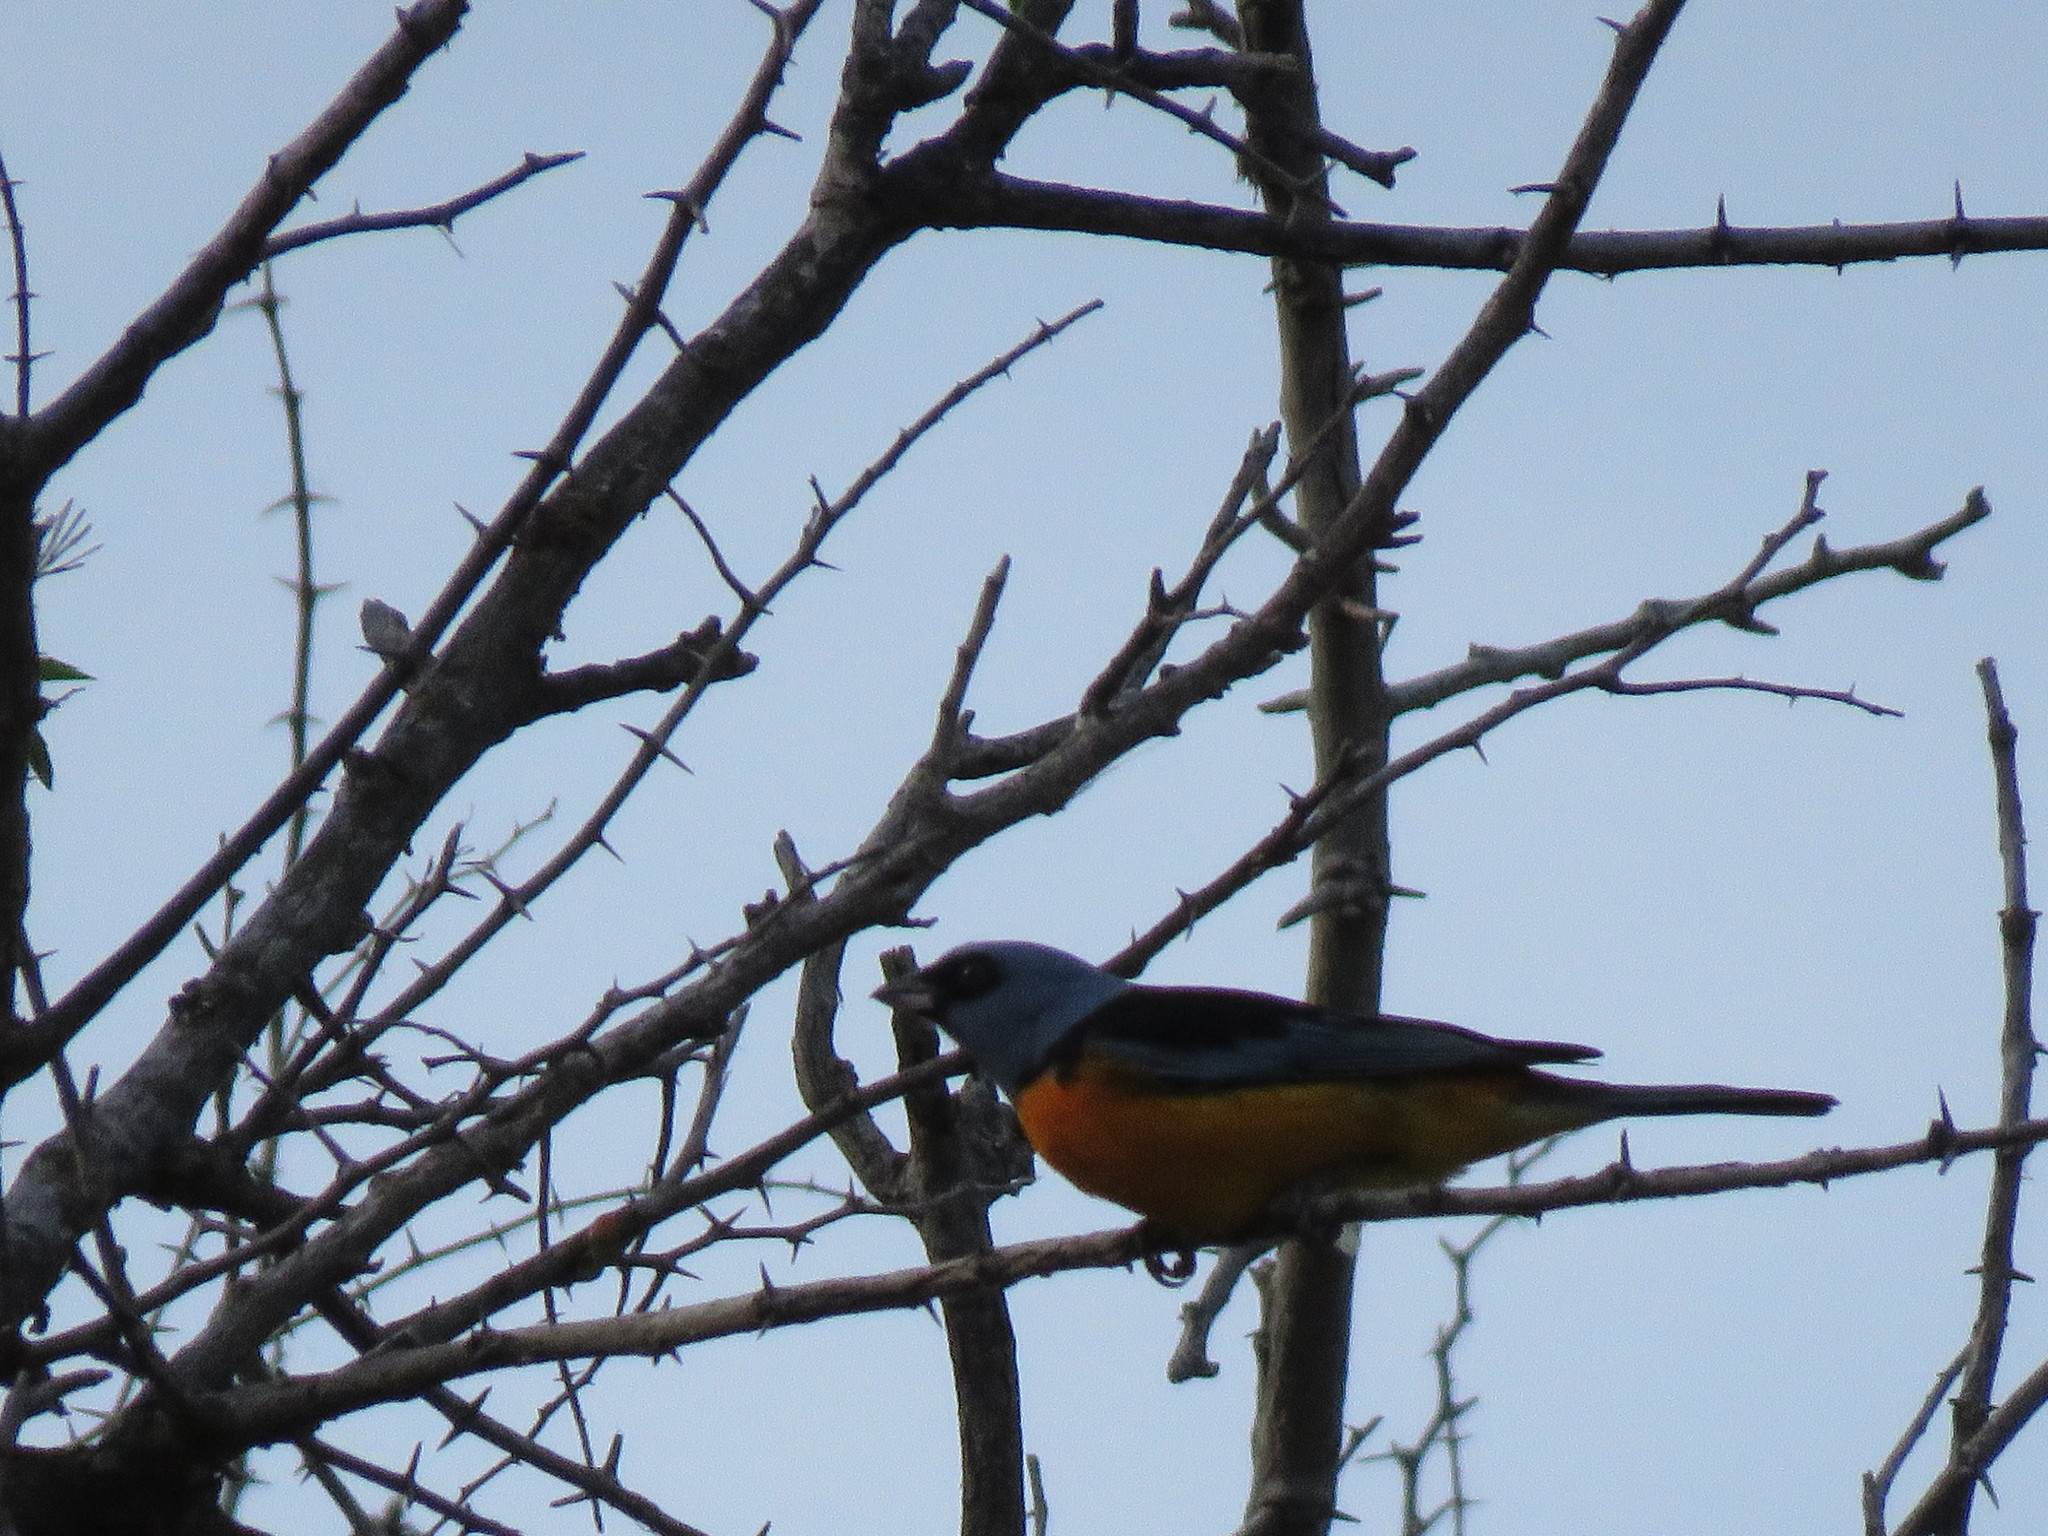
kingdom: Animalia
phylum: Chordata
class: Aves
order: Passeriformes
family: Thraupidae
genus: Rauenia
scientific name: Rauenia bonariensis
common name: Blue-and-yellow tanager
